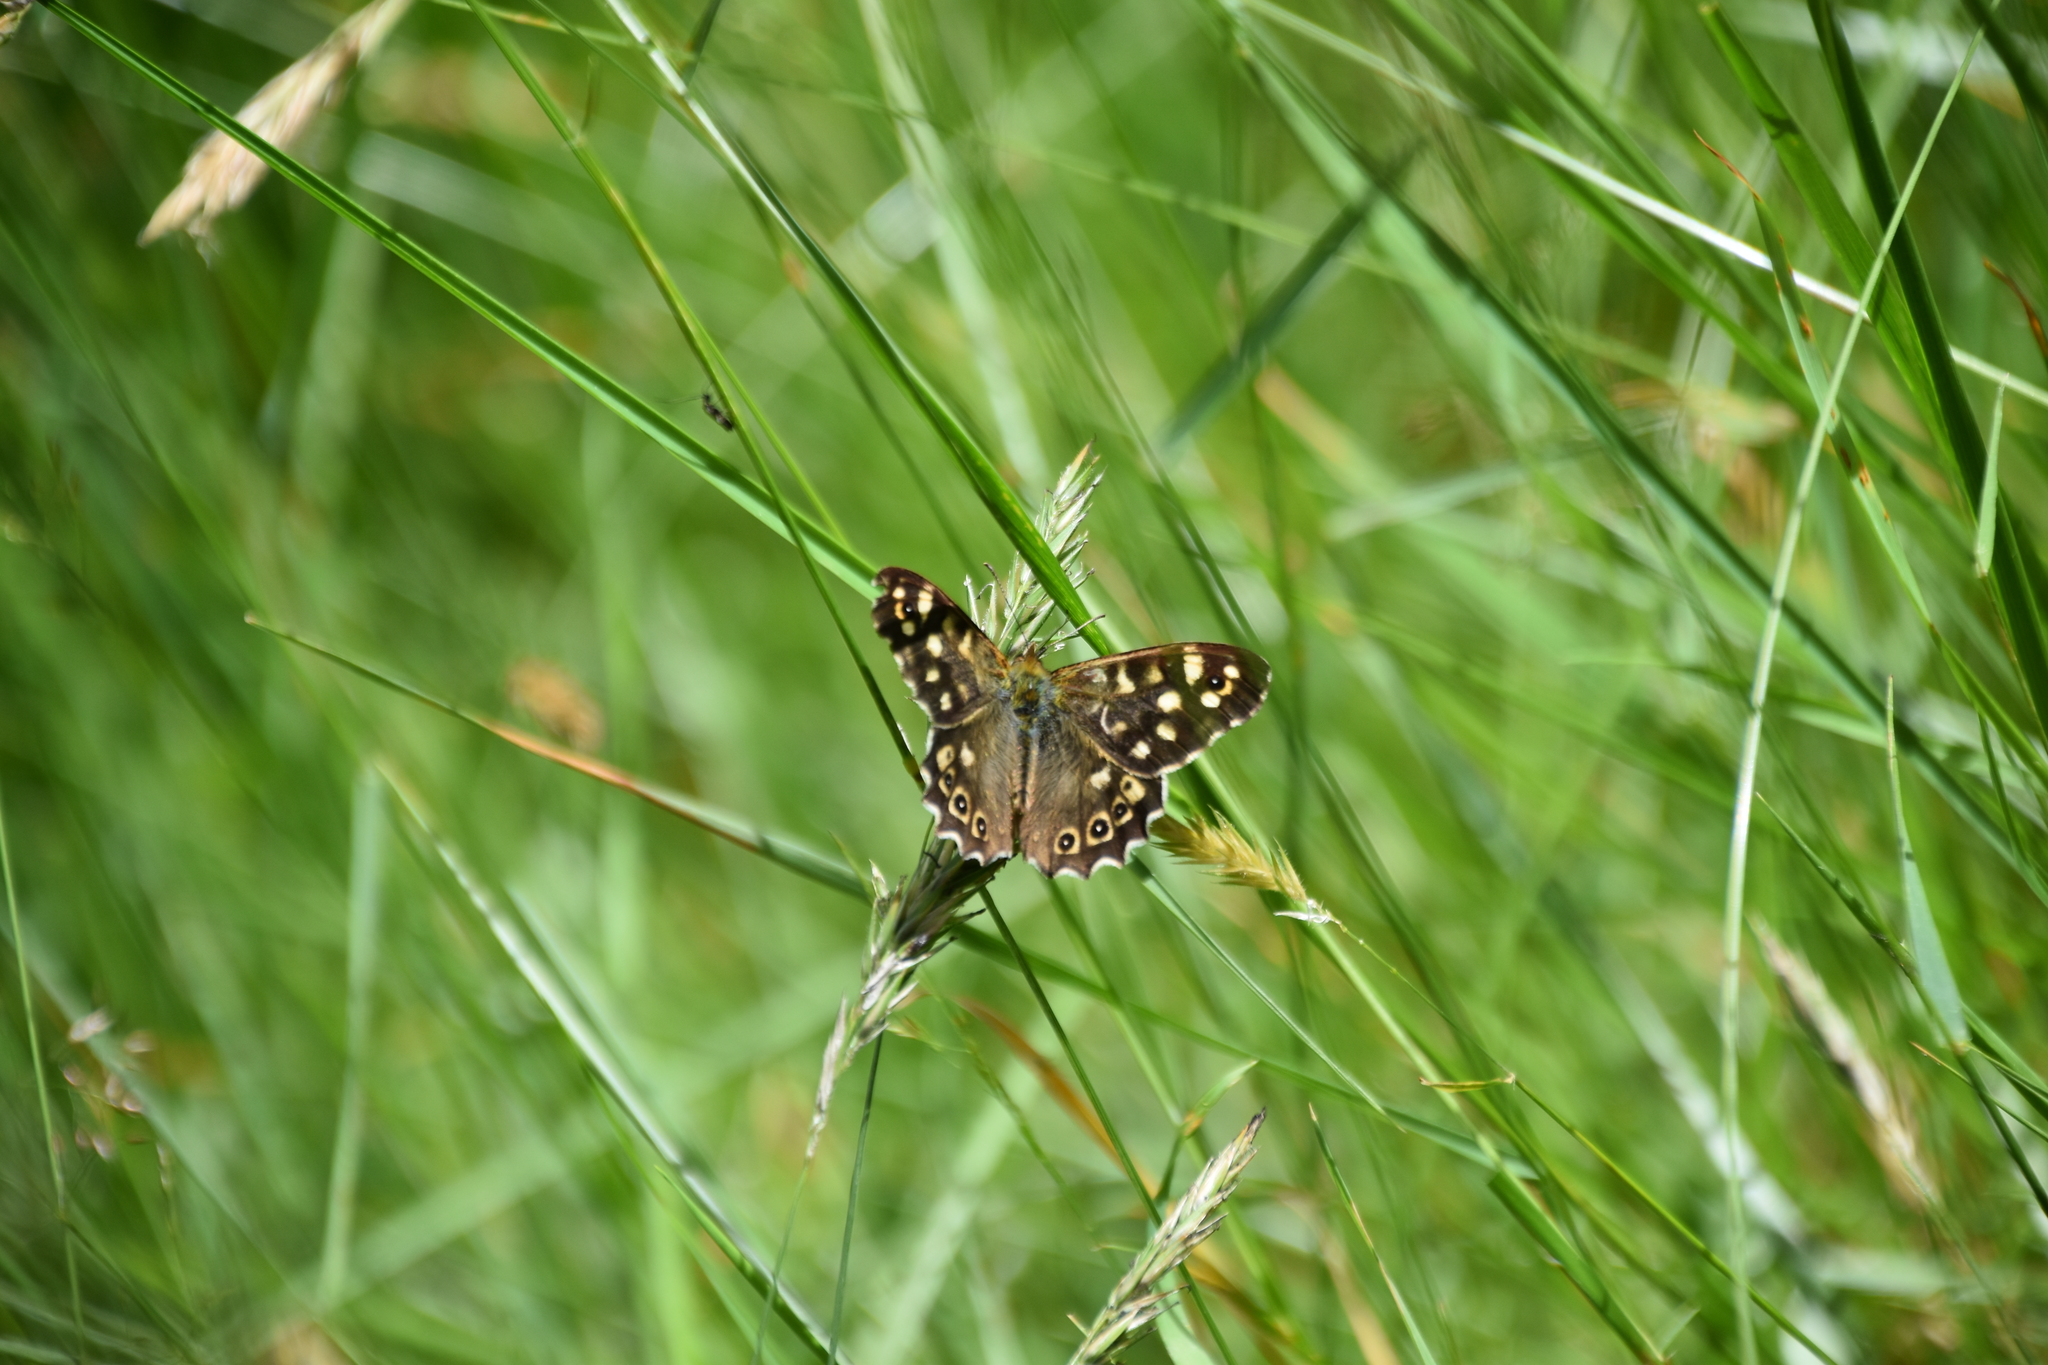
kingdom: Animalia
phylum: Arthropoda
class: Insecta
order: Lepidoptera
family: Nymphalidae
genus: Pararge
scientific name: Pararge aegeria
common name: Speckled wood
